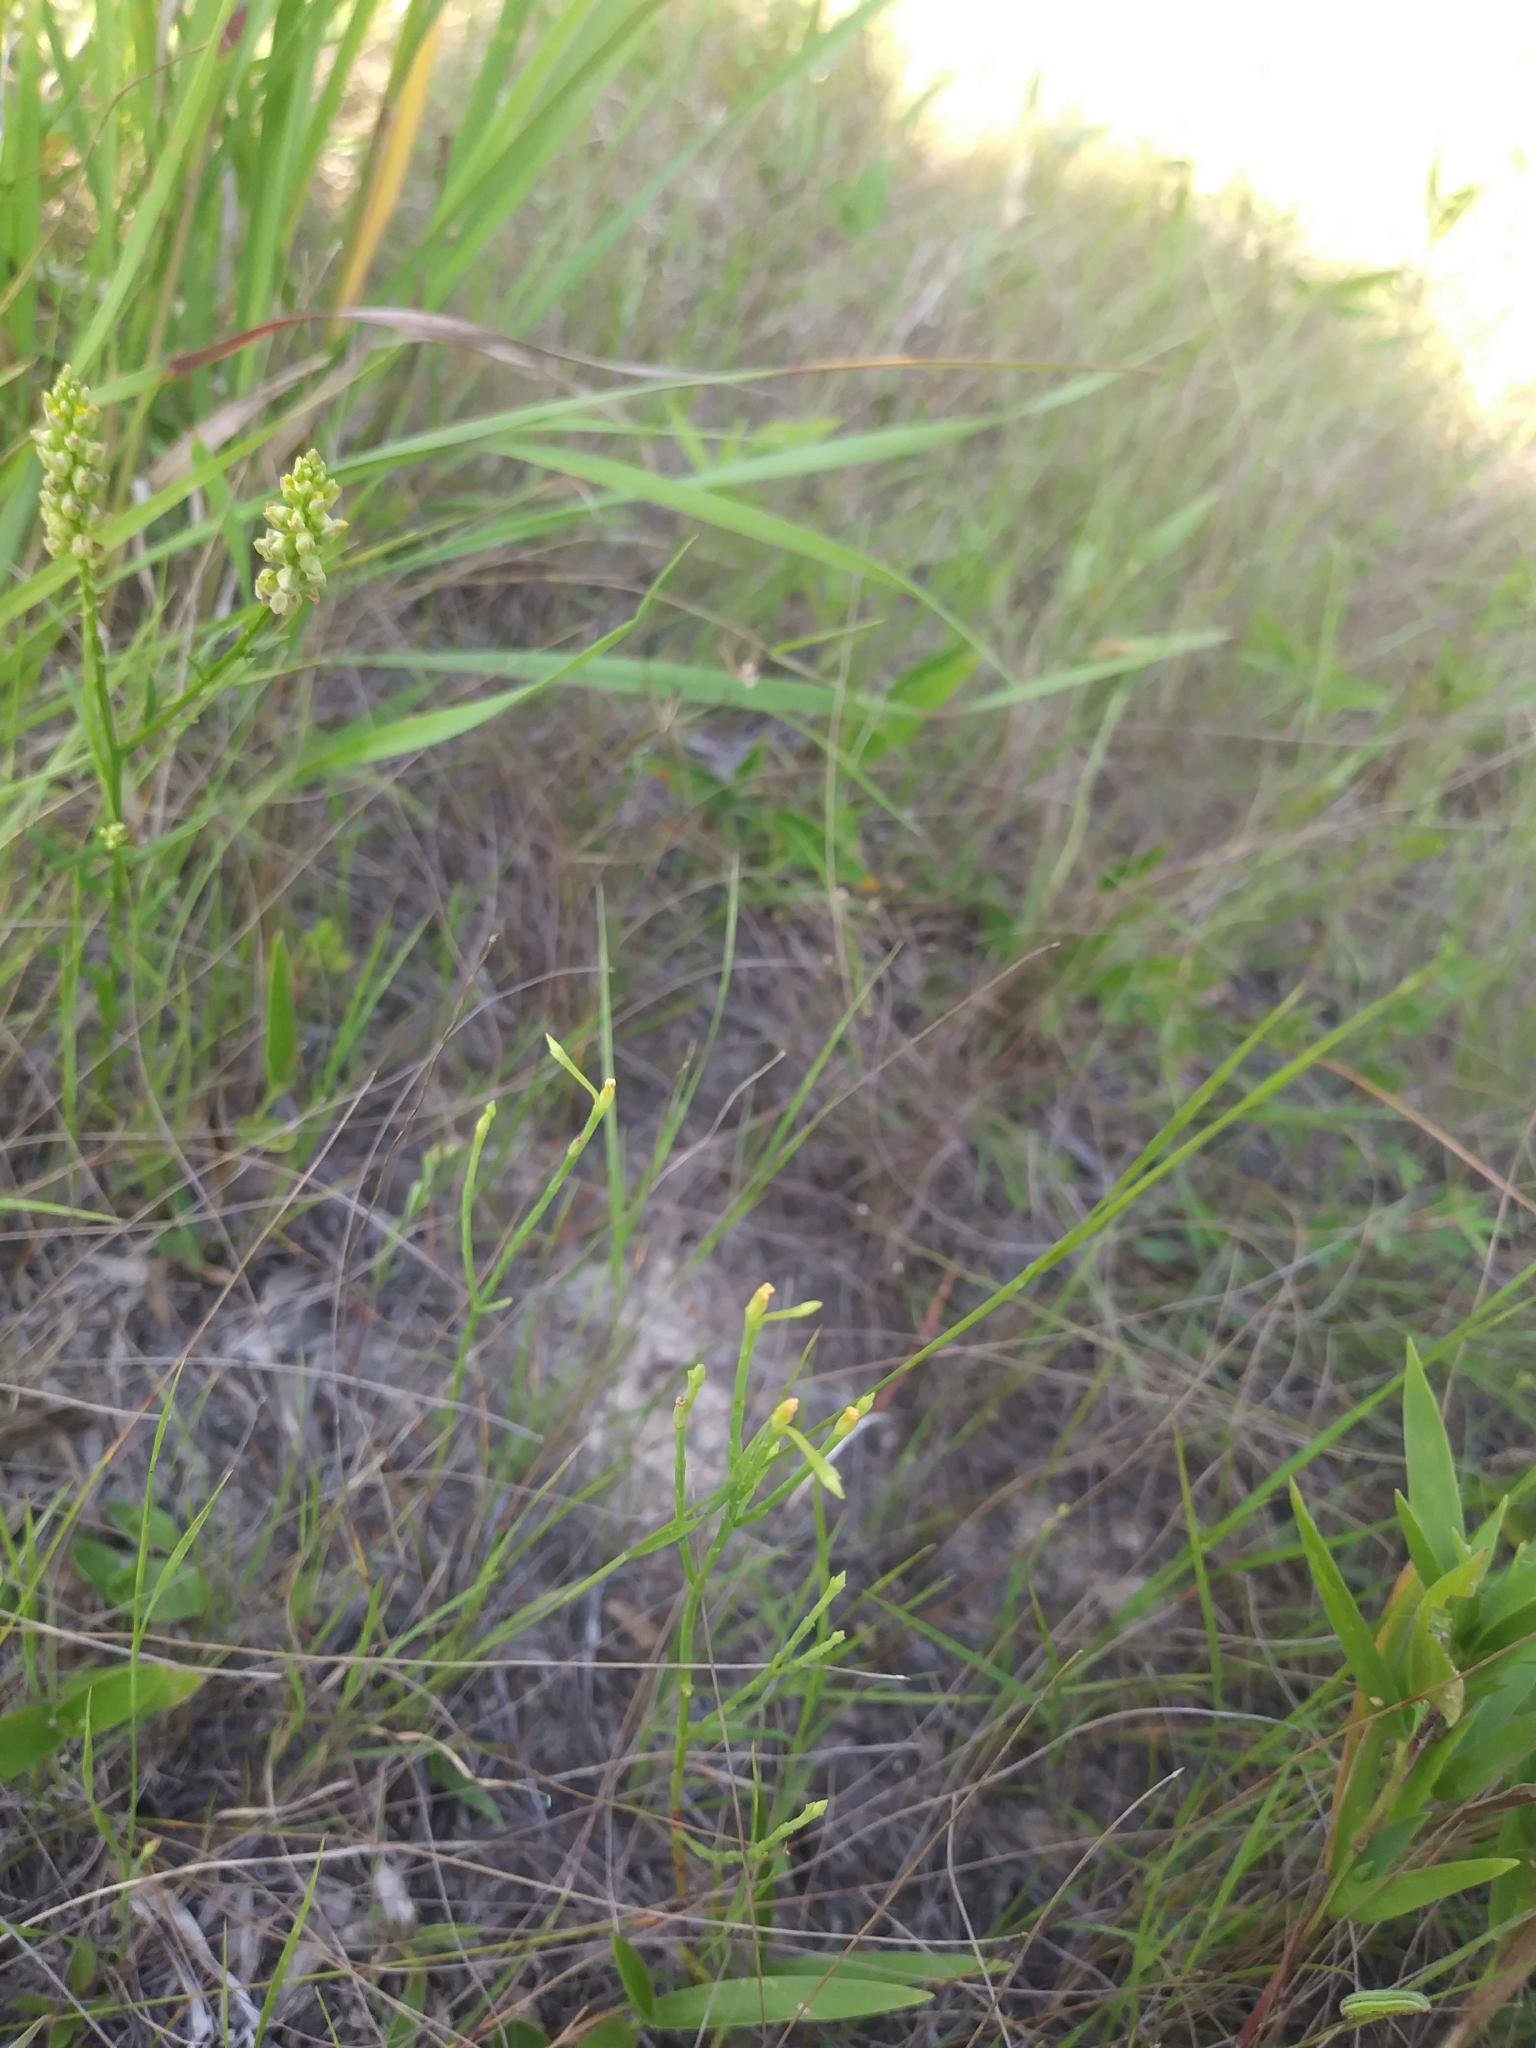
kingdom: Plantae
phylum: Tracheophyta
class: Magnoliopsida
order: Malpighiales
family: Hypericaceae
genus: Hypericum
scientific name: Hypericum gentianoides
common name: Gentian-leaved st. john's-wort
